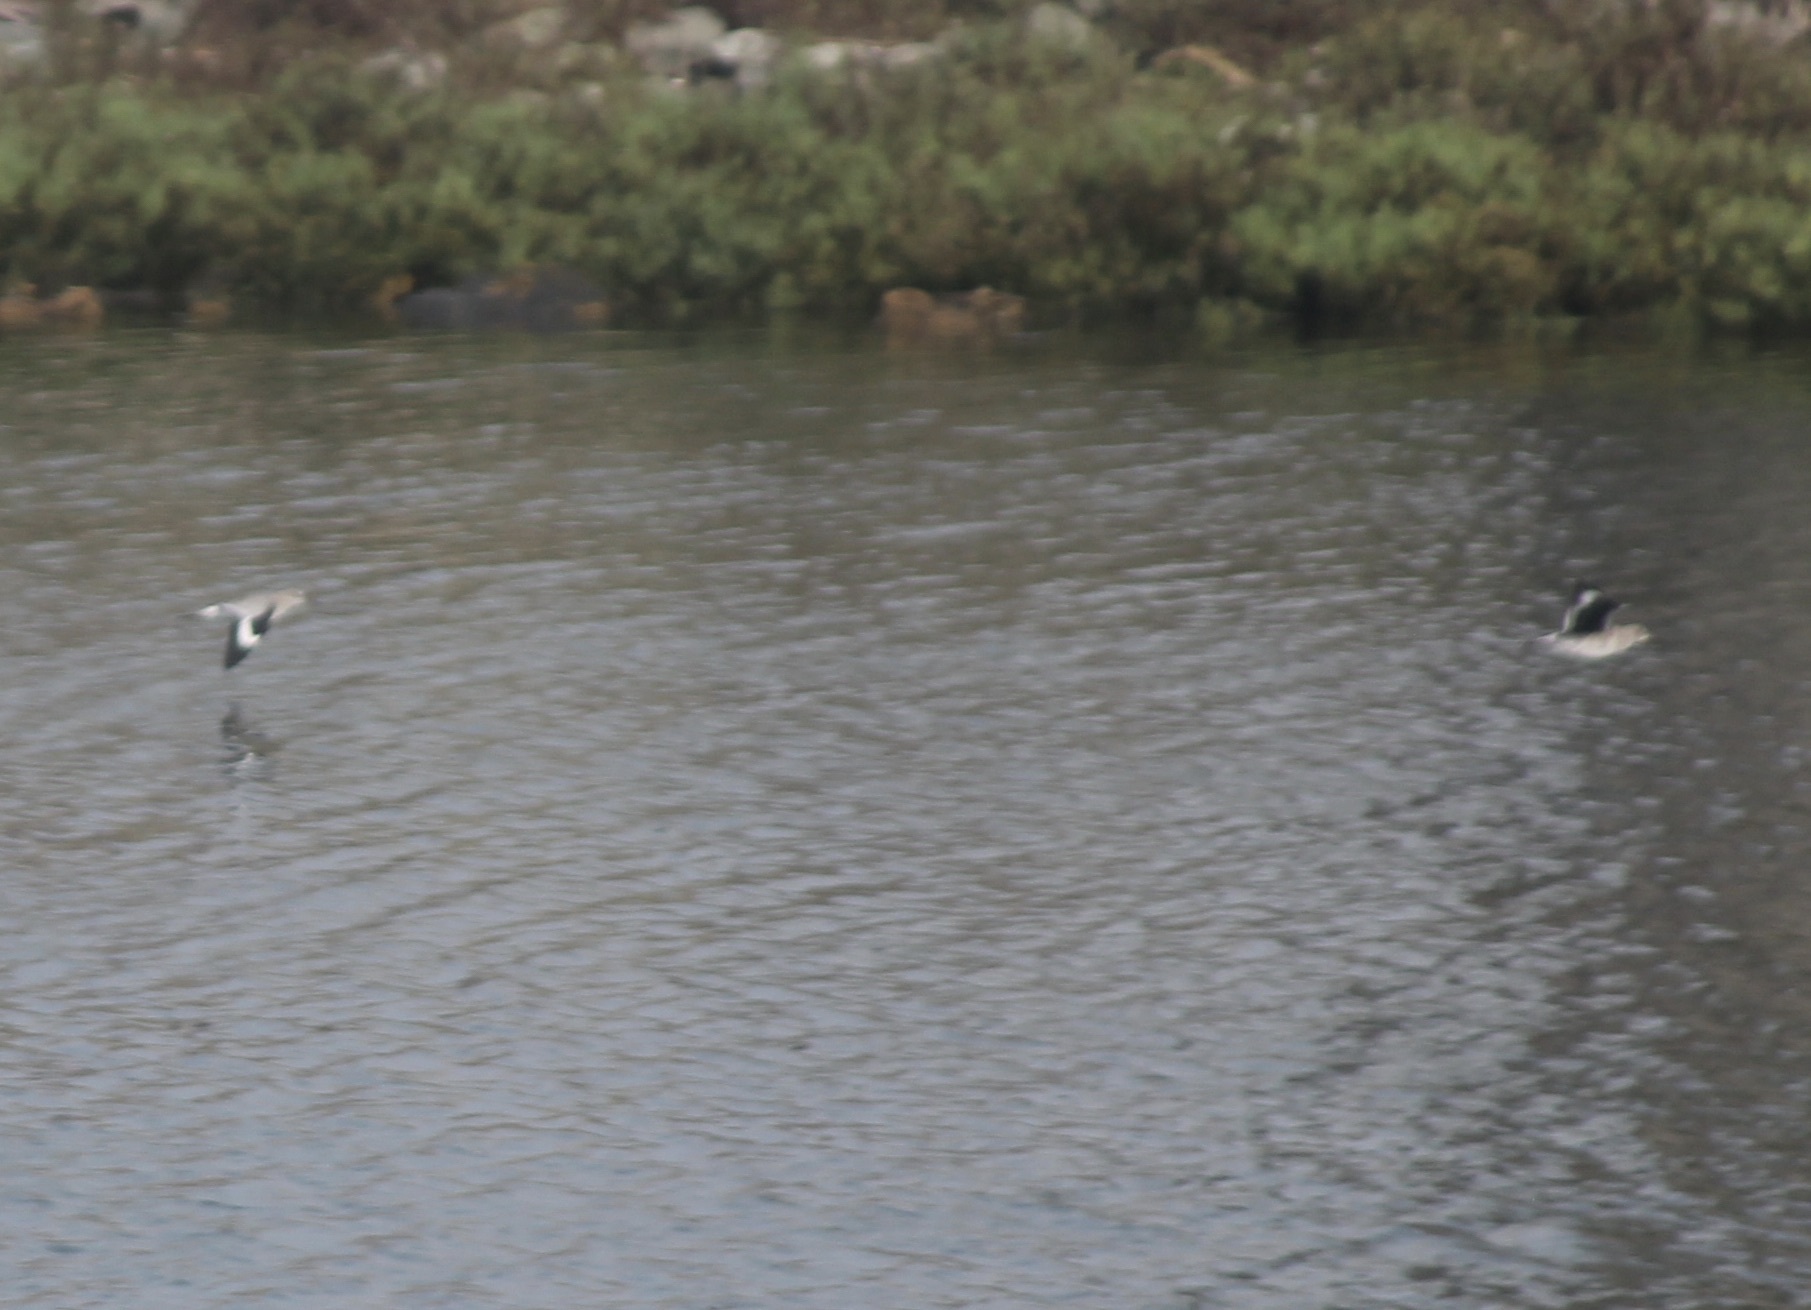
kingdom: Animalia
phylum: Chordata
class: Aves
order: Charadriiformes
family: Scolopacidae
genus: Tringa
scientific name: Tringa semipalmata
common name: Willet
